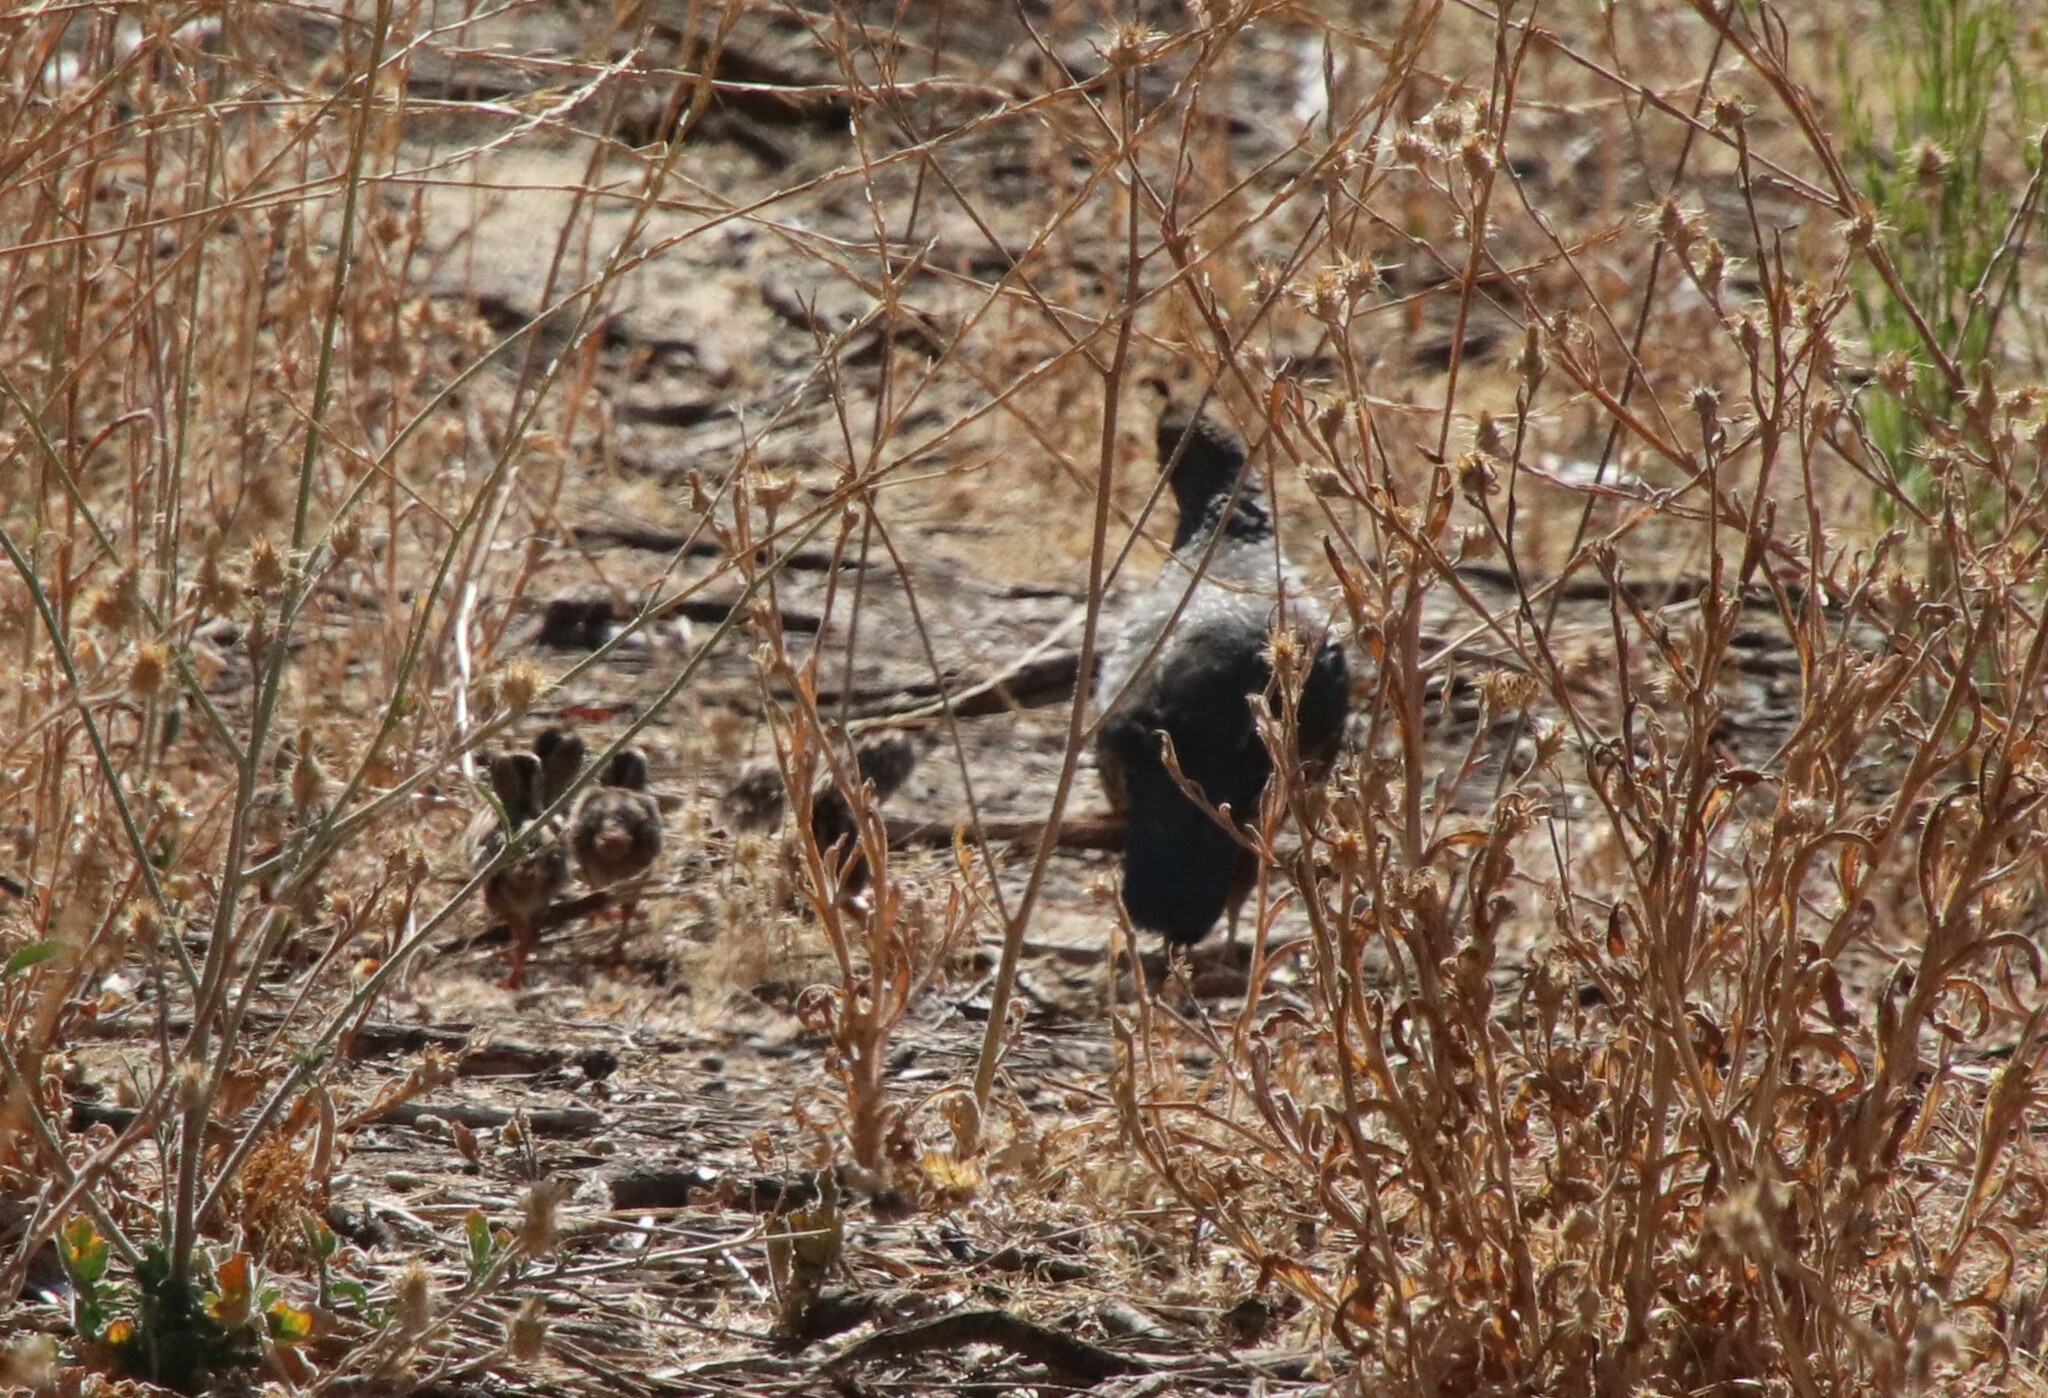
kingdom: Animalia
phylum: Chordata
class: Aves
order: Galliformes
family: Odontophoridae
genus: Callipepla
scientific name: Callipepla californica
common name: California quail
